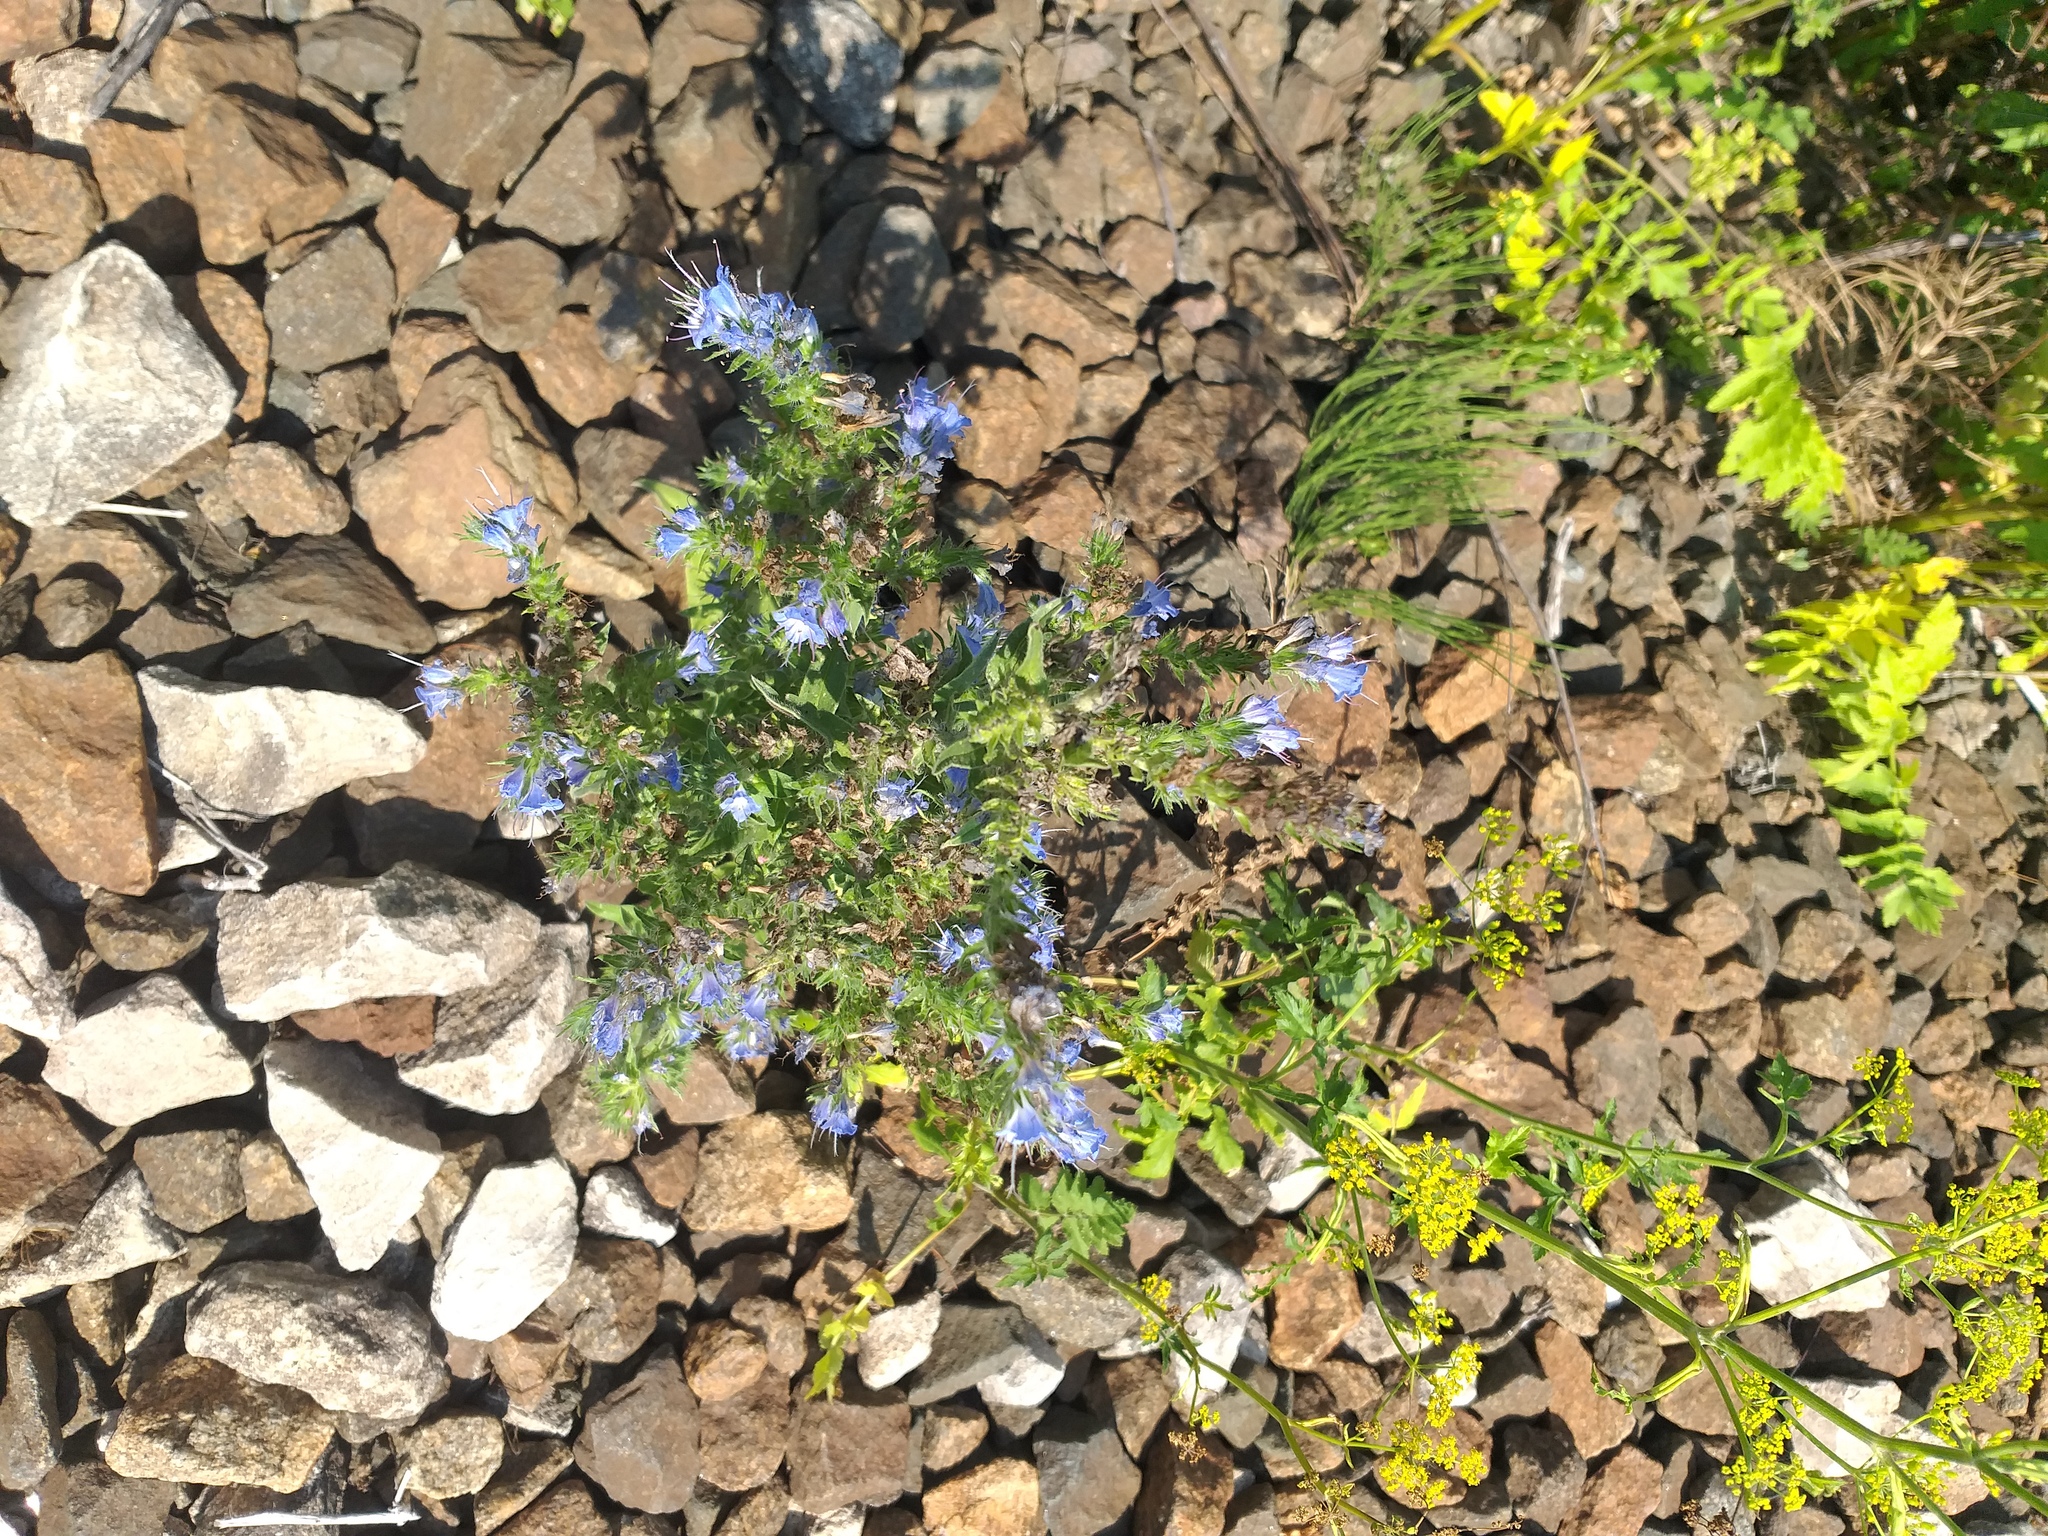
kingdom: Plantae
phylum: Tracheophyta
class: Magnoliopsida
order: Boraginales
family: Boraginaceae
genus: Echium
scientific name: Echium vulgare
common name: Common viper's bugloss
